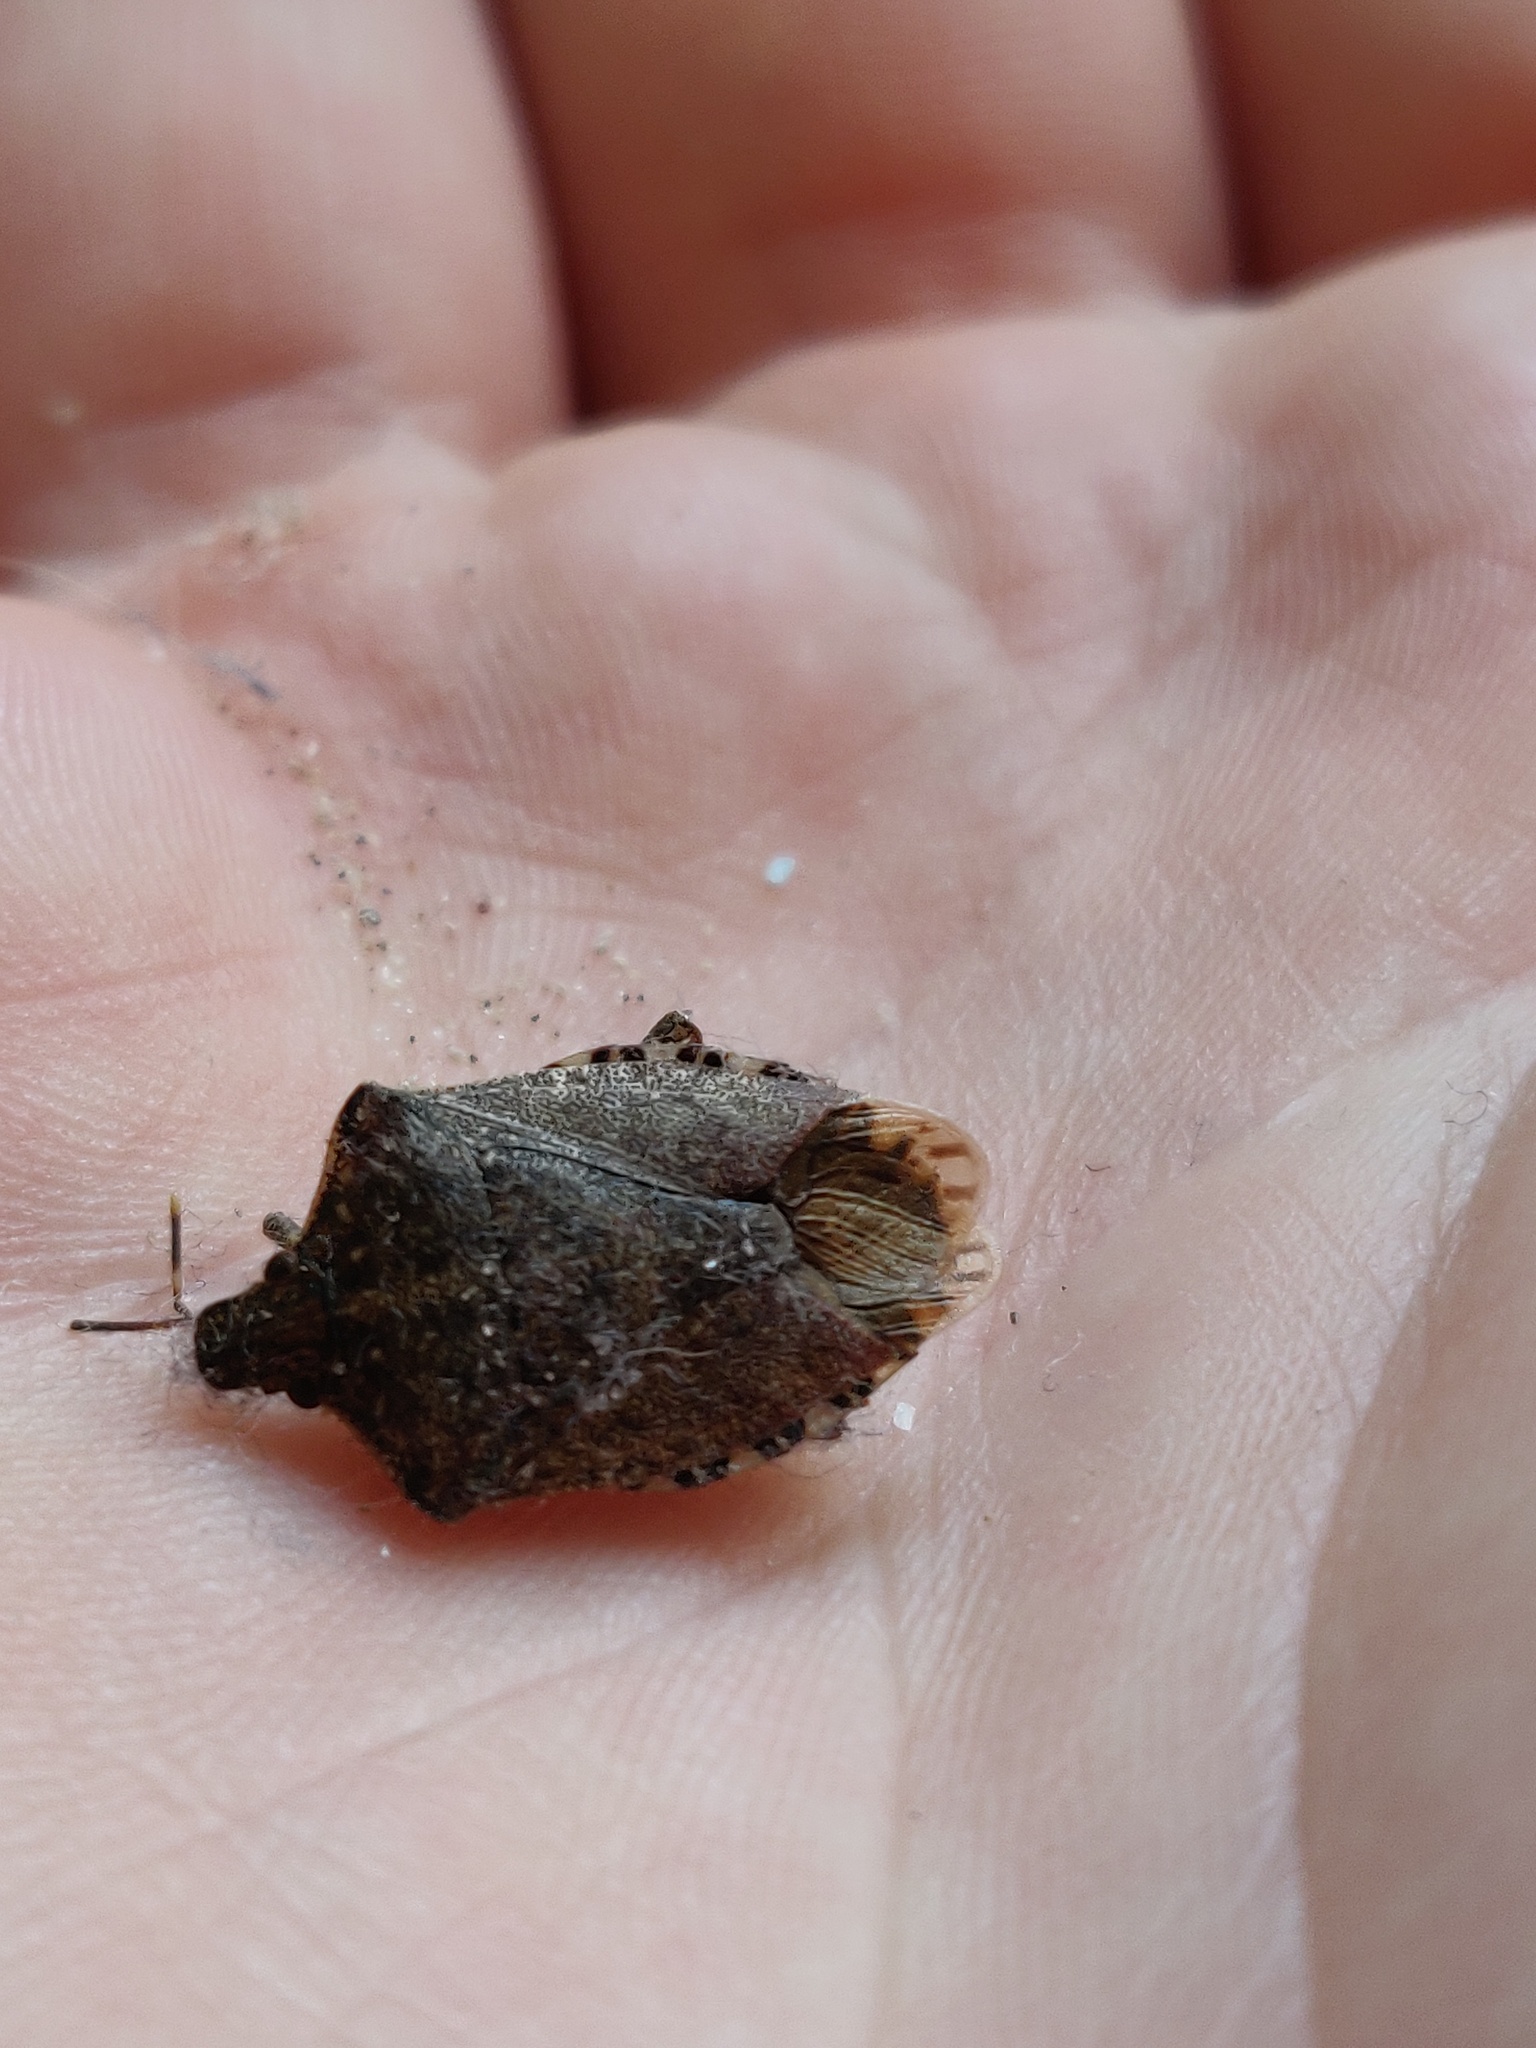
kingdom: Animalia
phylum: Arthropoda
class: Insecta
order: Hemiptera
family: Pentatomidae
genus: Halyomorpha
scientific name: Halyomorpha halys
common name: Brown marmorated stink bug
